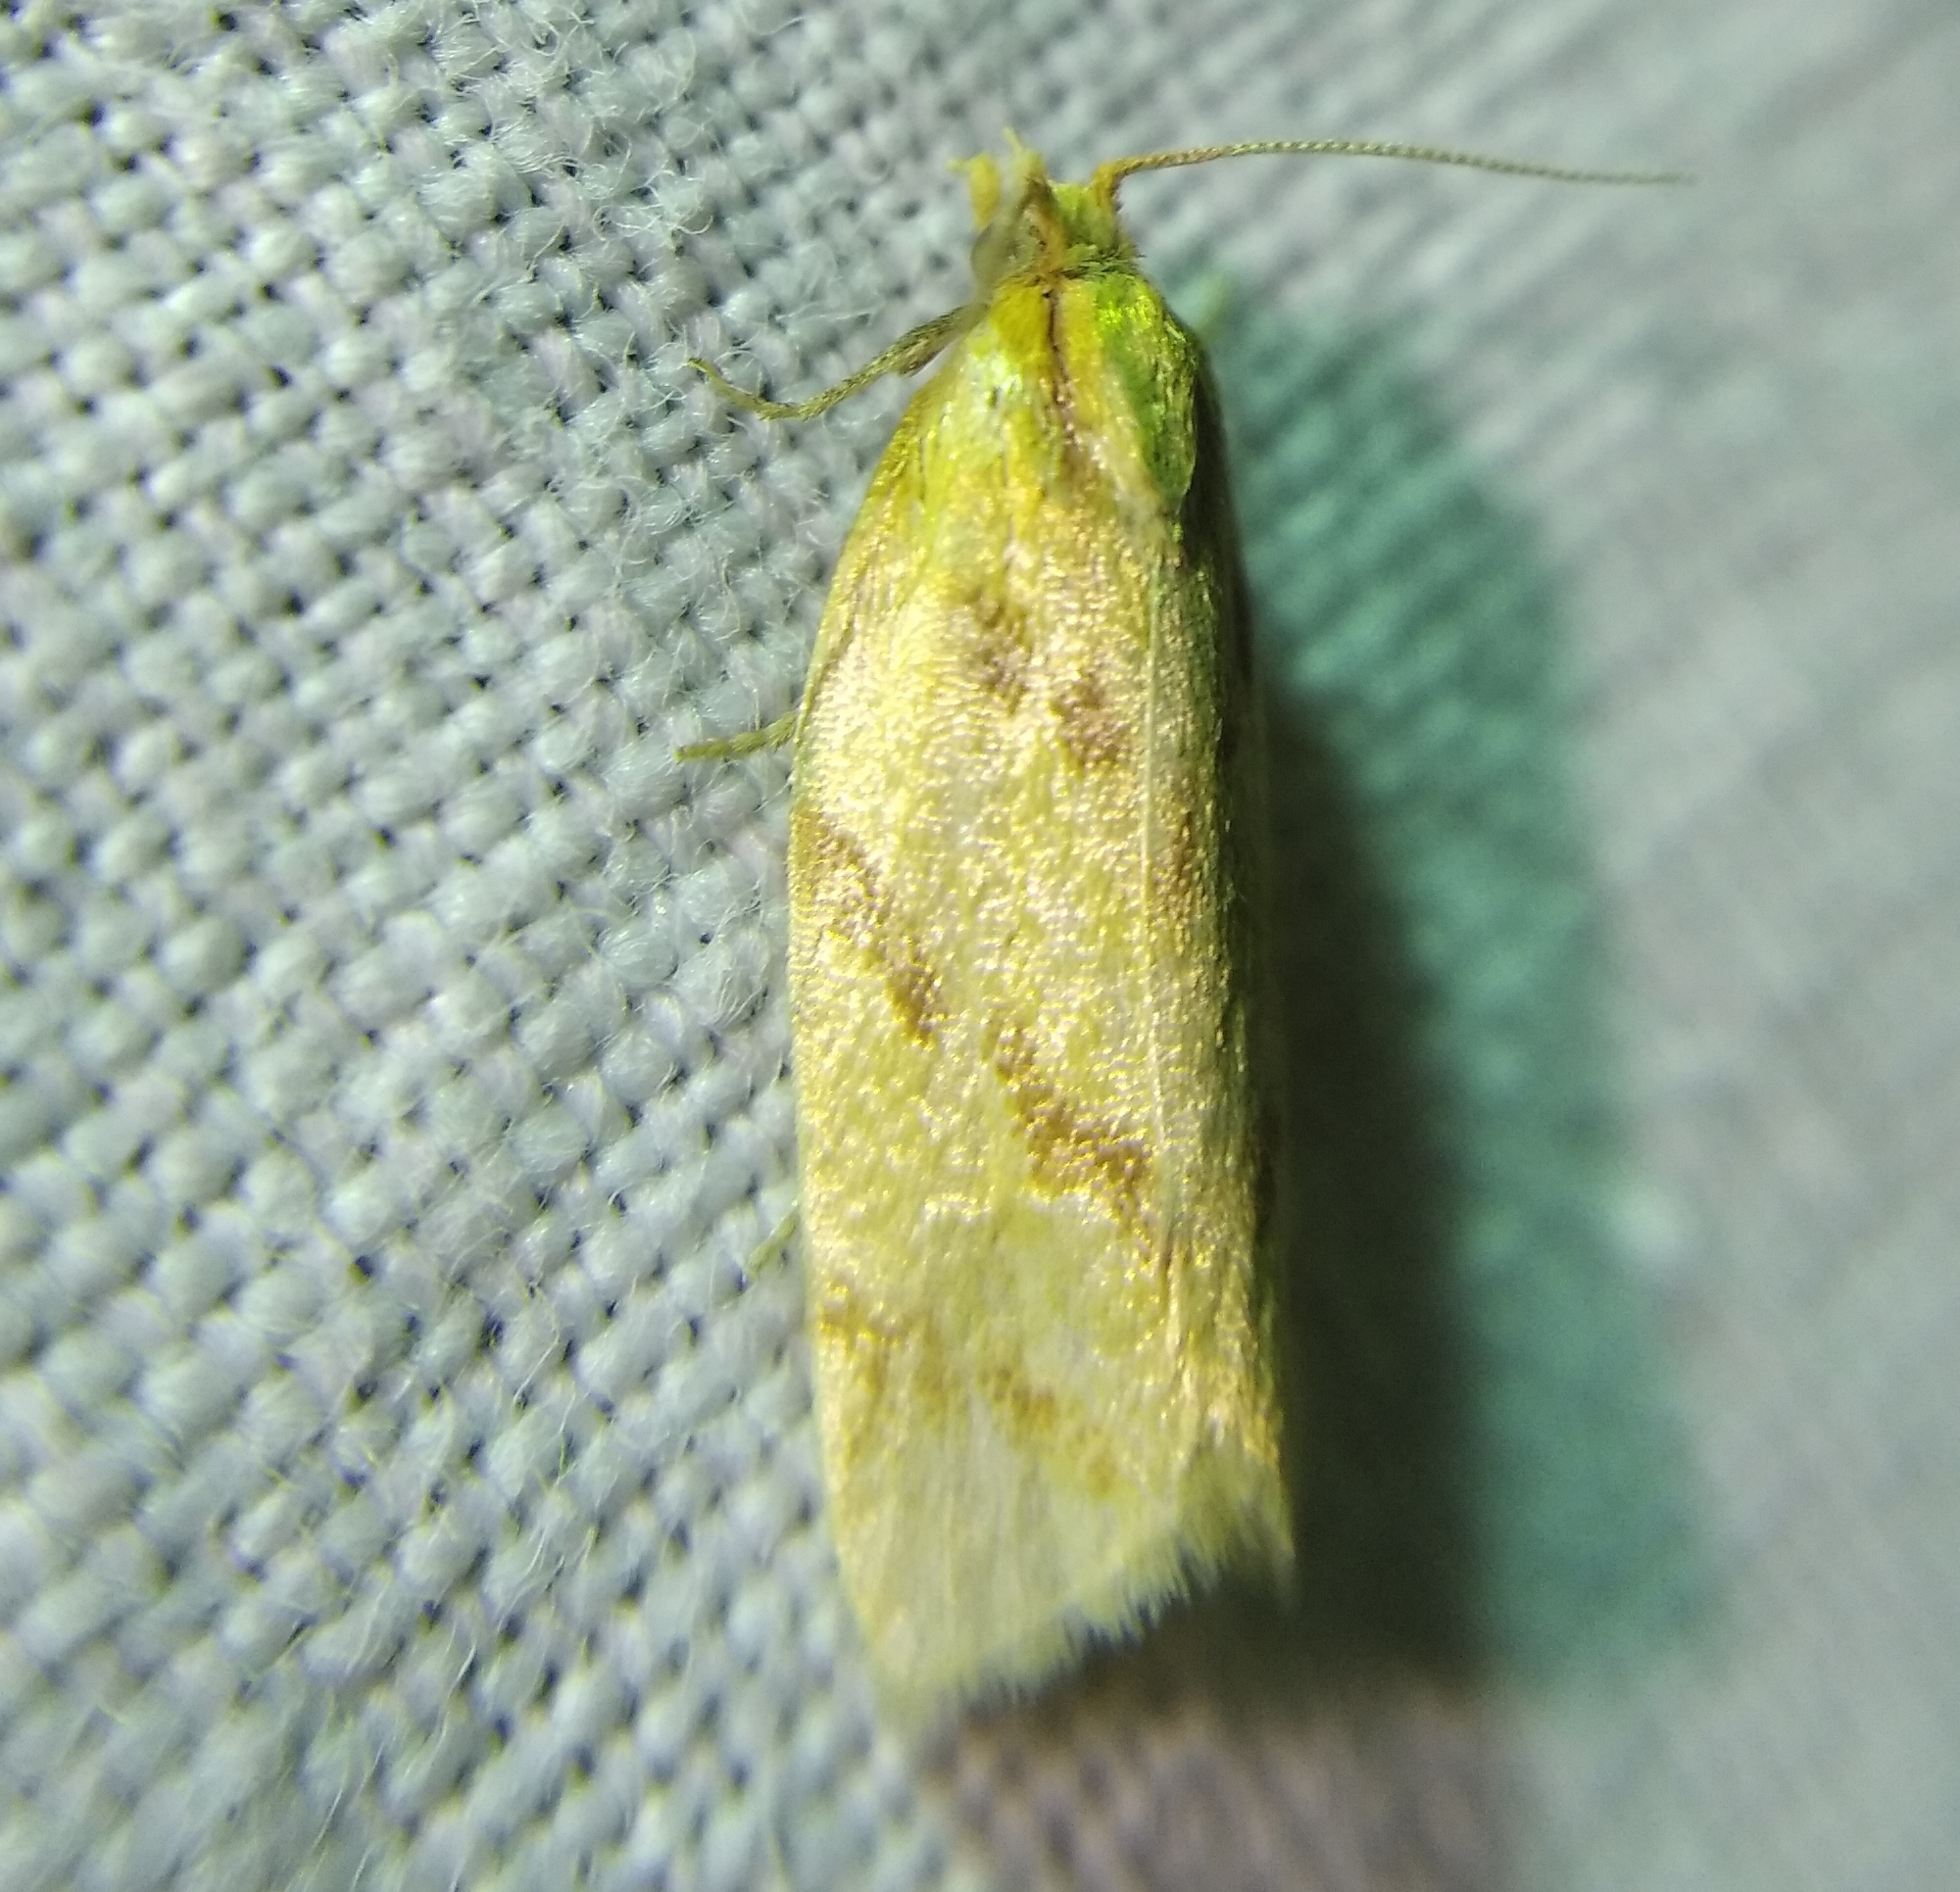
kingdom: Animalia
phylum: Arthropoda
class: Insecta
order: Lepidoptera
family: Tortricidae
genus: Clepsis
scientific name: Clepsis pallidana
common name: Sheep's-bit conch
